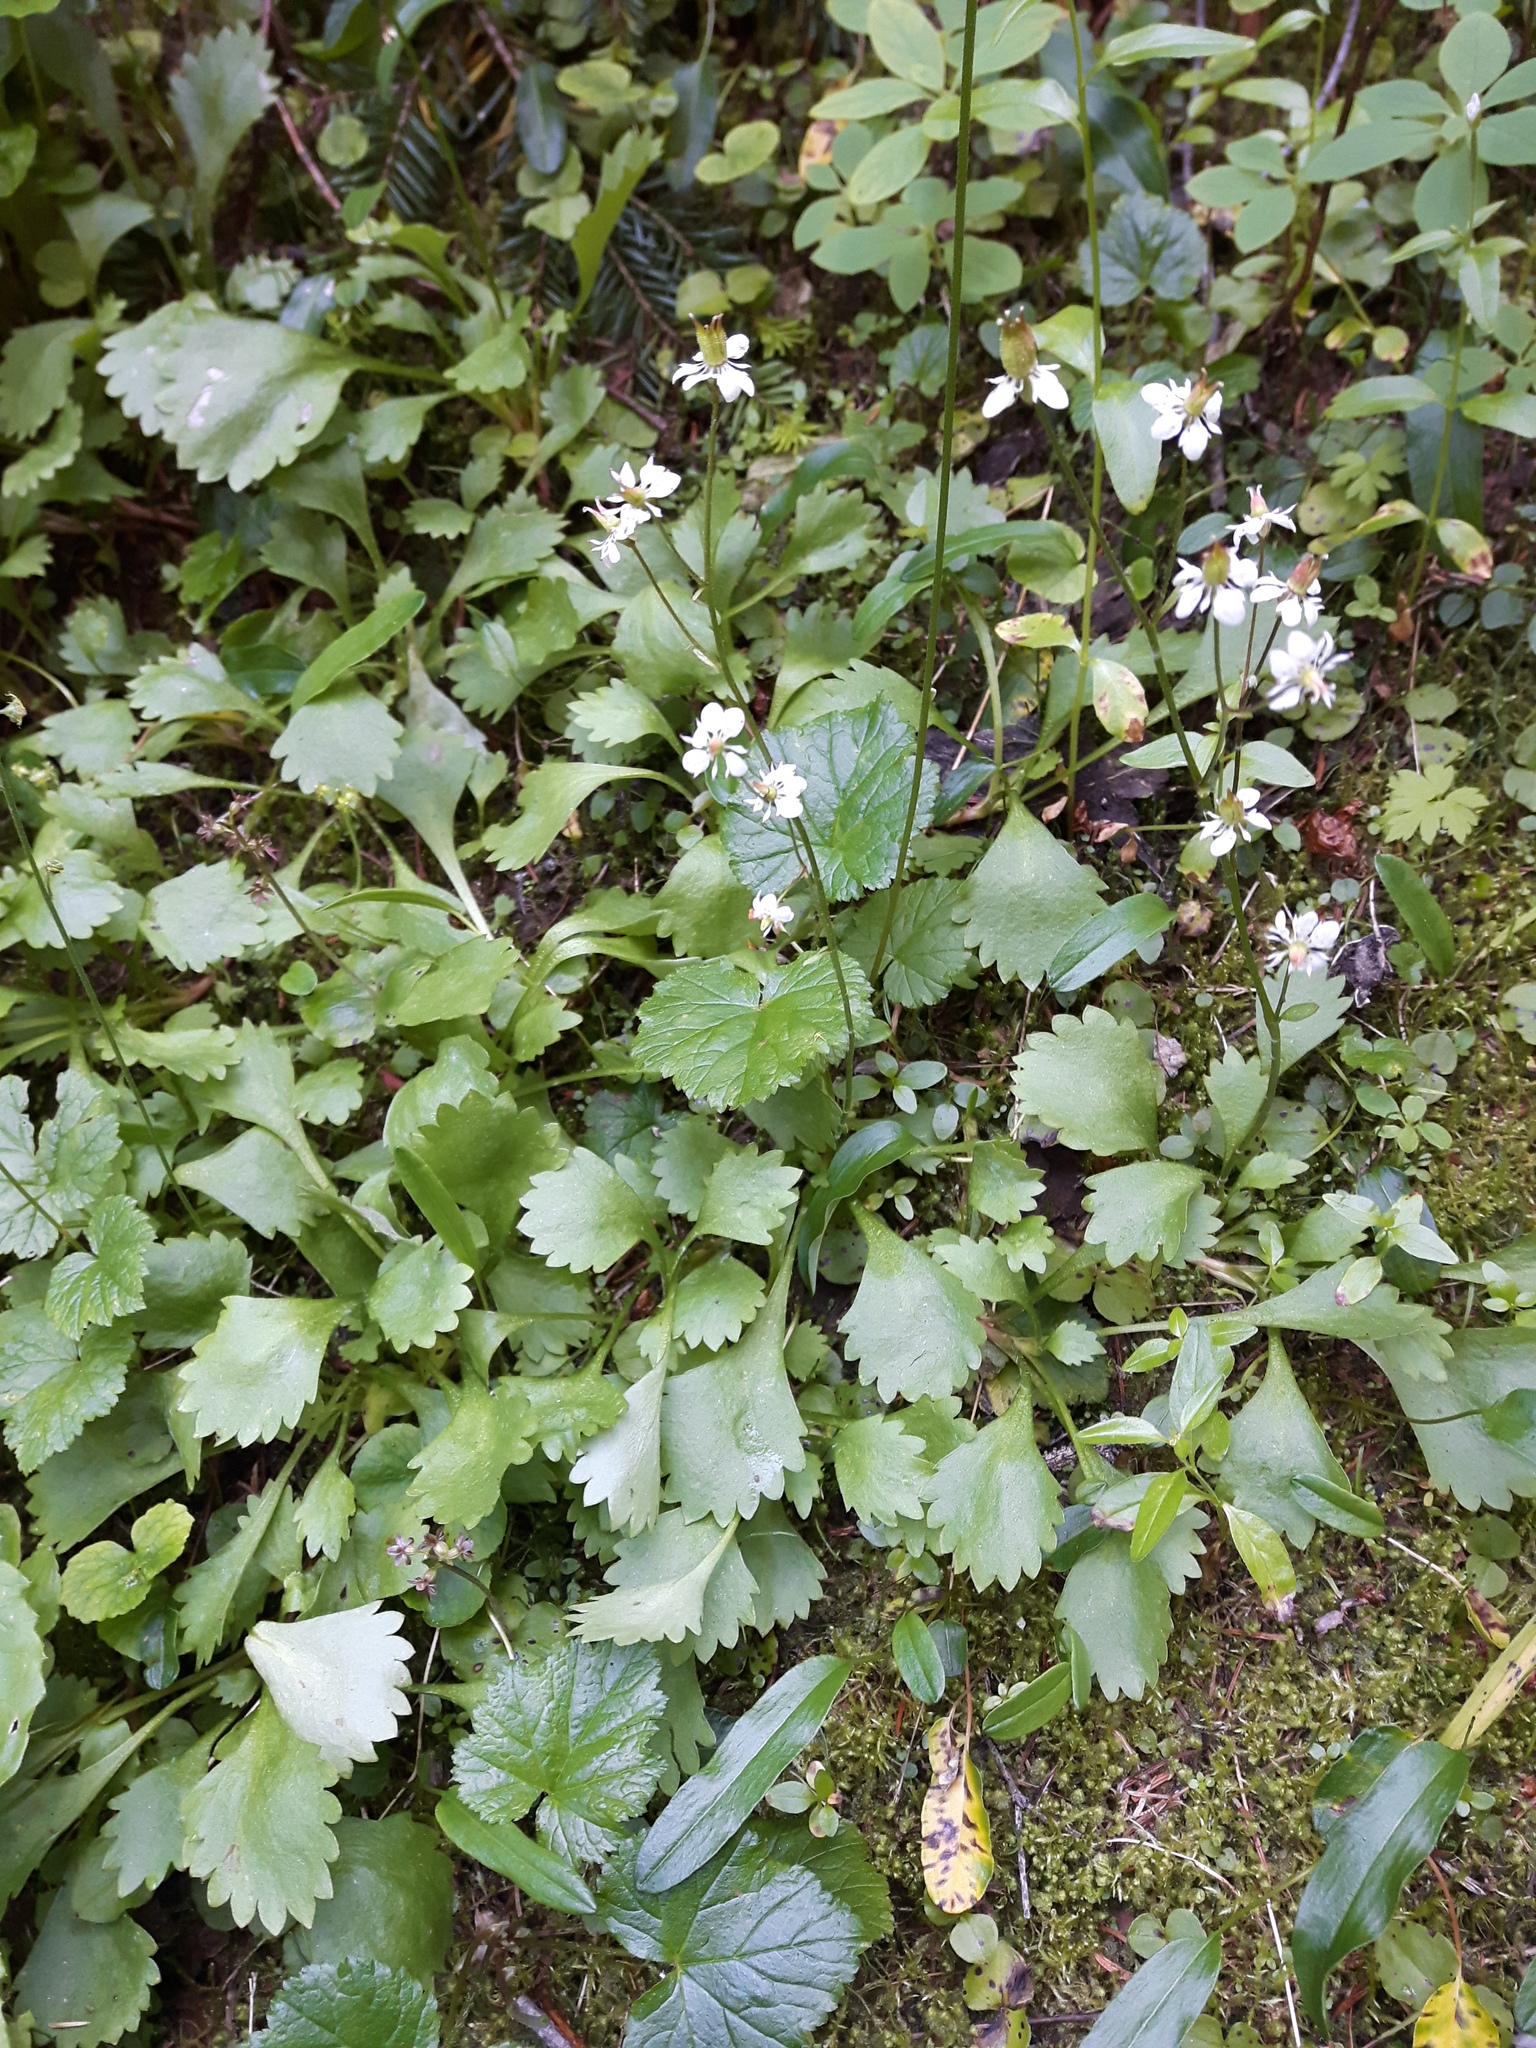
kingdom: Plantae
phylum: Tracheophyta
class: Magnoliopsida
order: Saxifragales
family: Saxifragaceae
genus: Micranthes
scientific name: Micranthes lyallii
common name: Lyall's saxifrage
